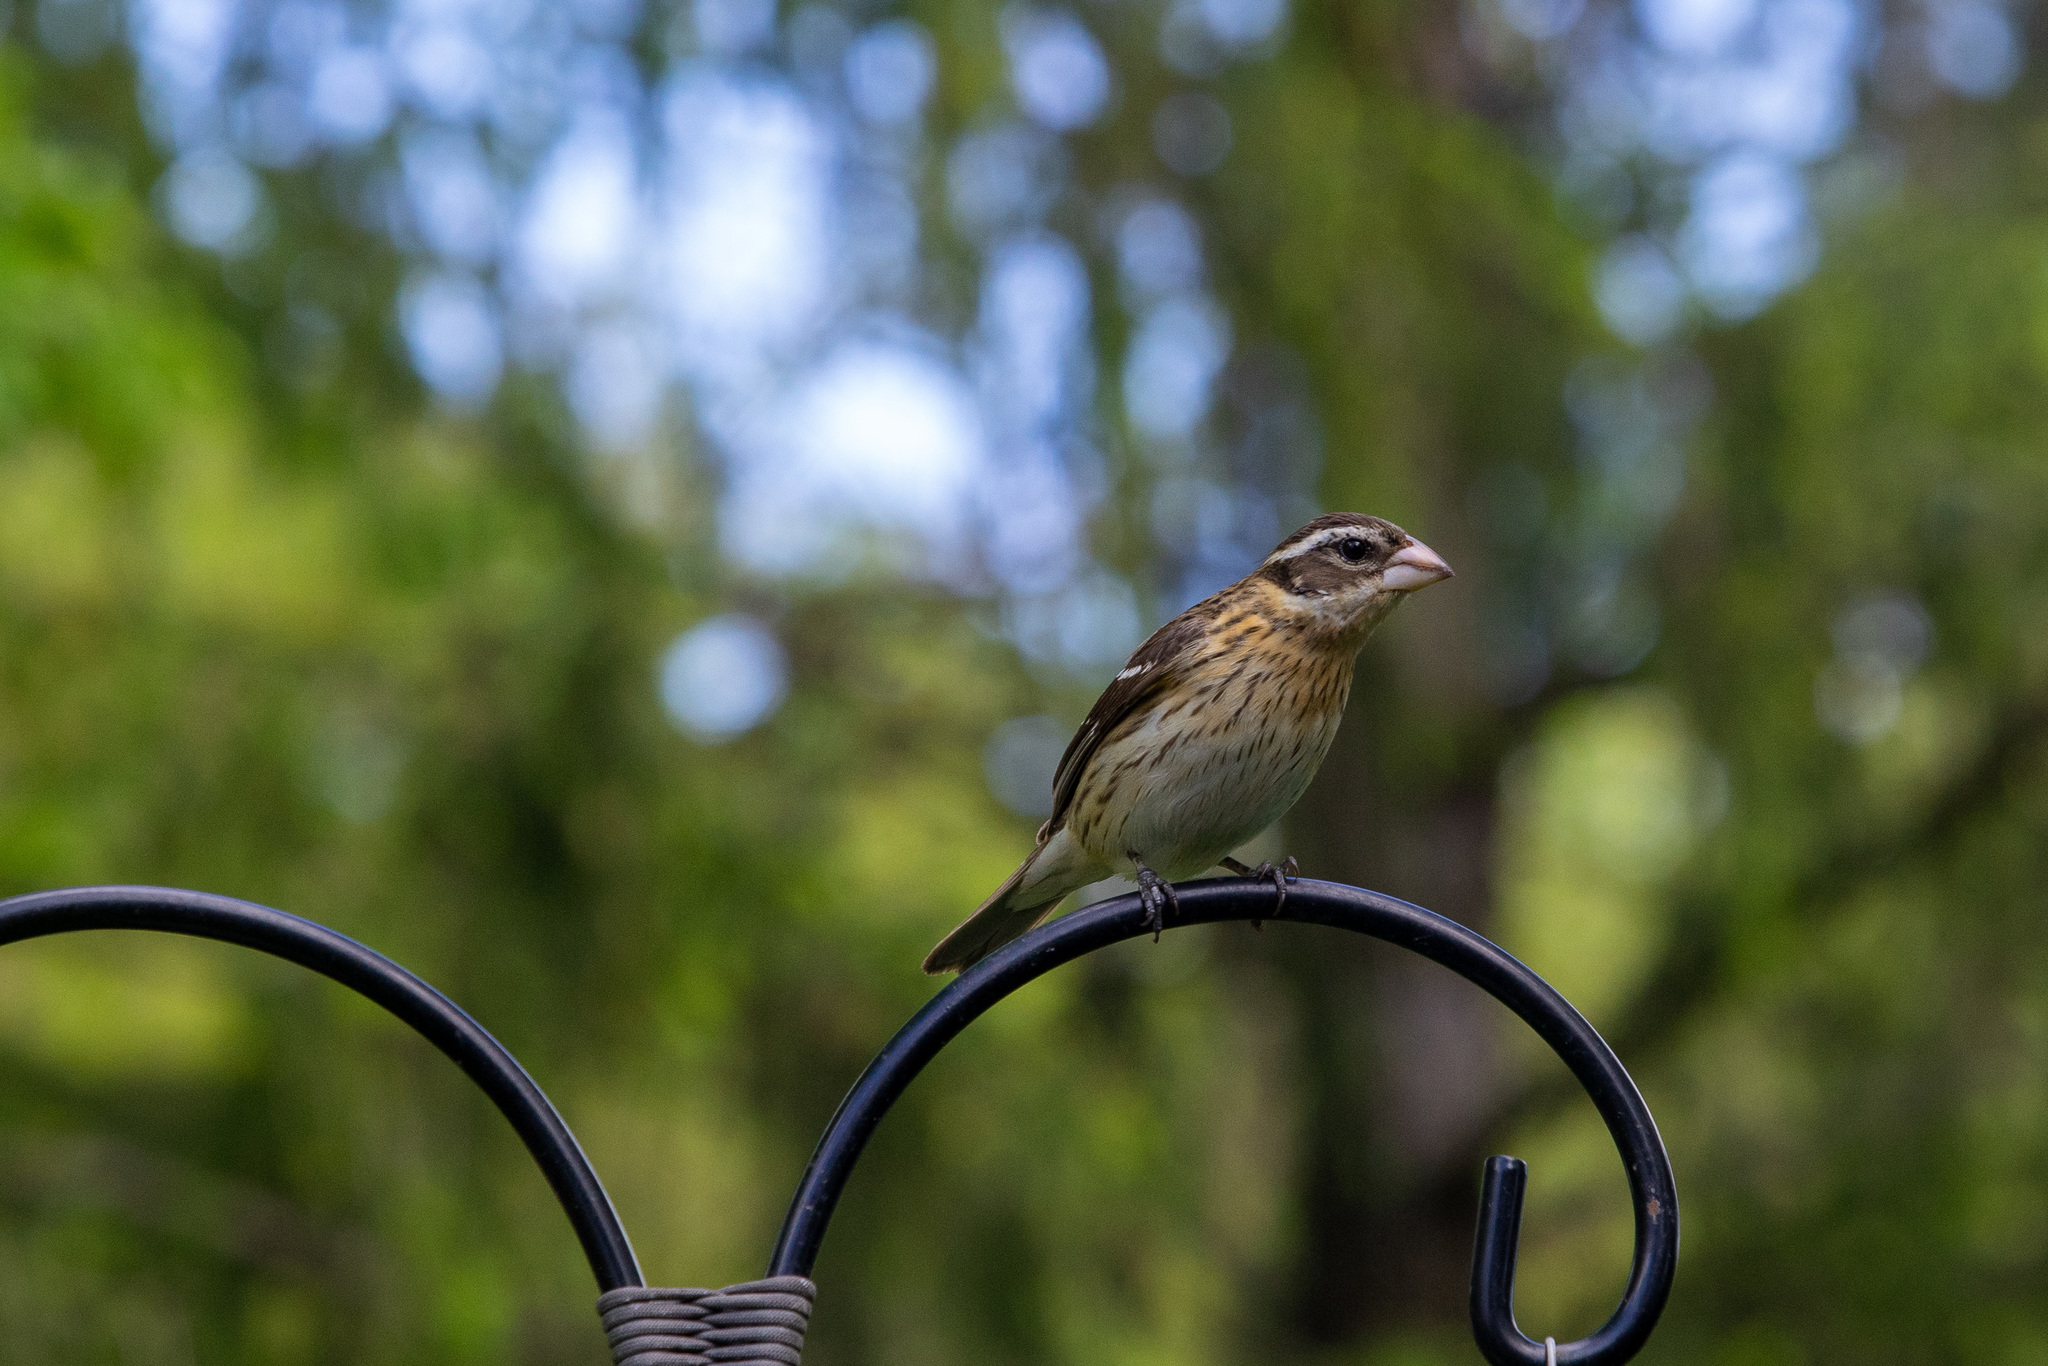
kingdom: Animalia
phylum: Chordata
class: Aves
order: Passeriformes
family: Cardinalidae
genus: Pheucticus
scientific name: Pheucticus ludovicianus
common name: Rose-breasted grosbeak
